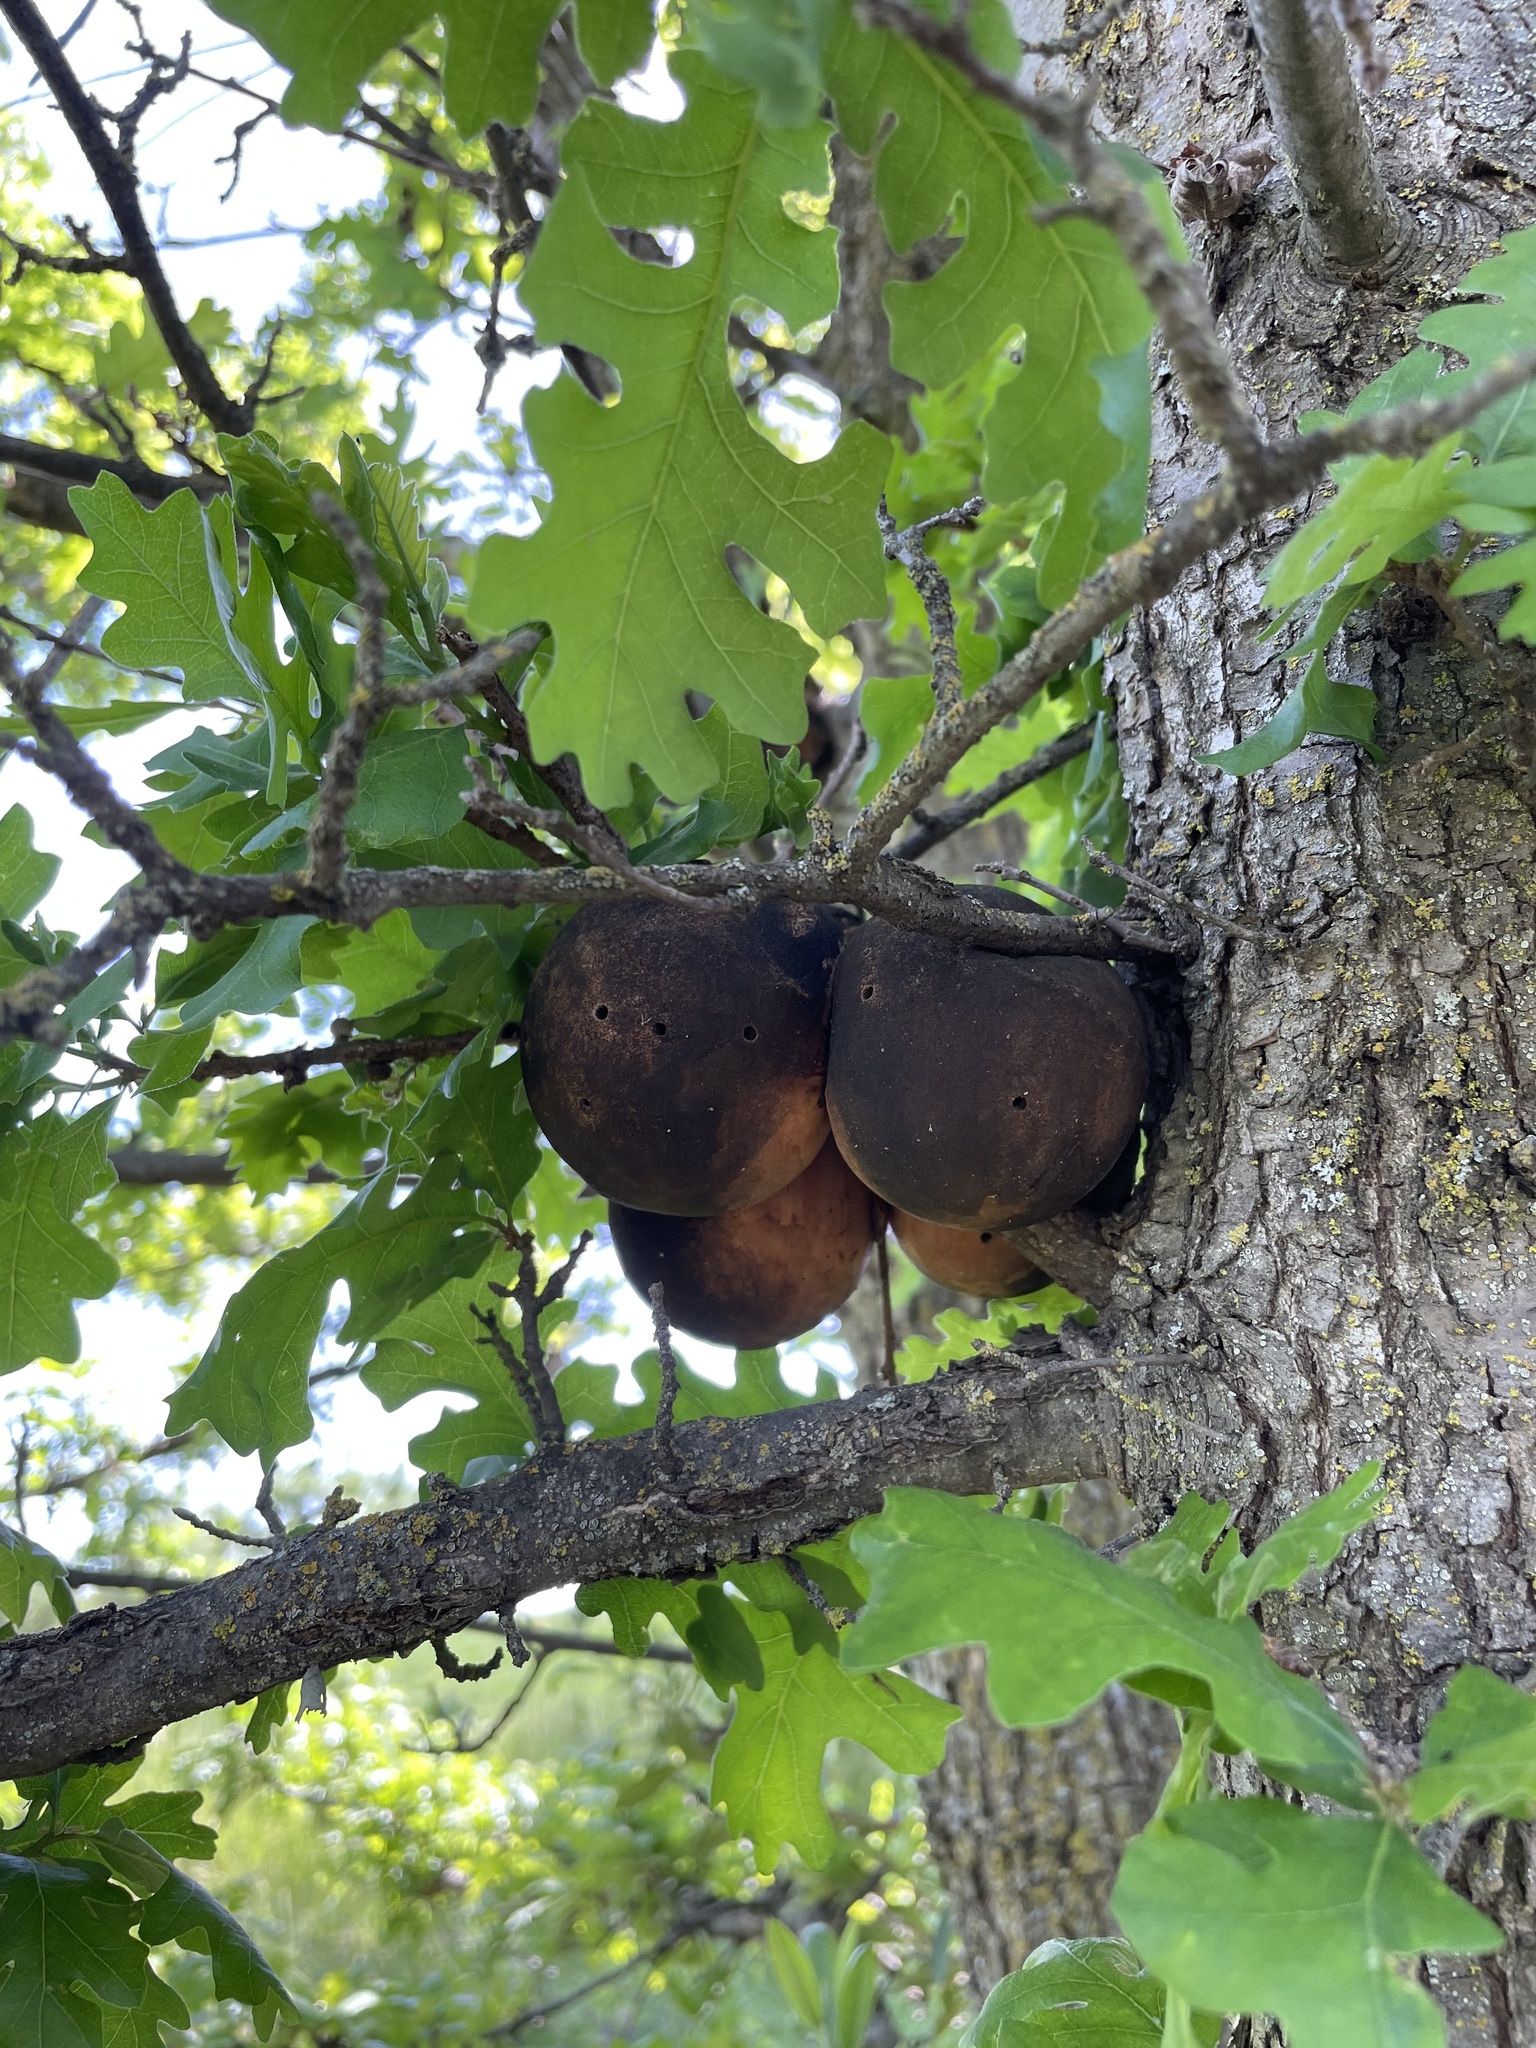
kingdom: Animalia
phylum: Arthropoda
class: Insecta
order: Hymenoptera
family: Cynipidae
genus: Andricus
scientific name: Andricus quercuscalifornicus
